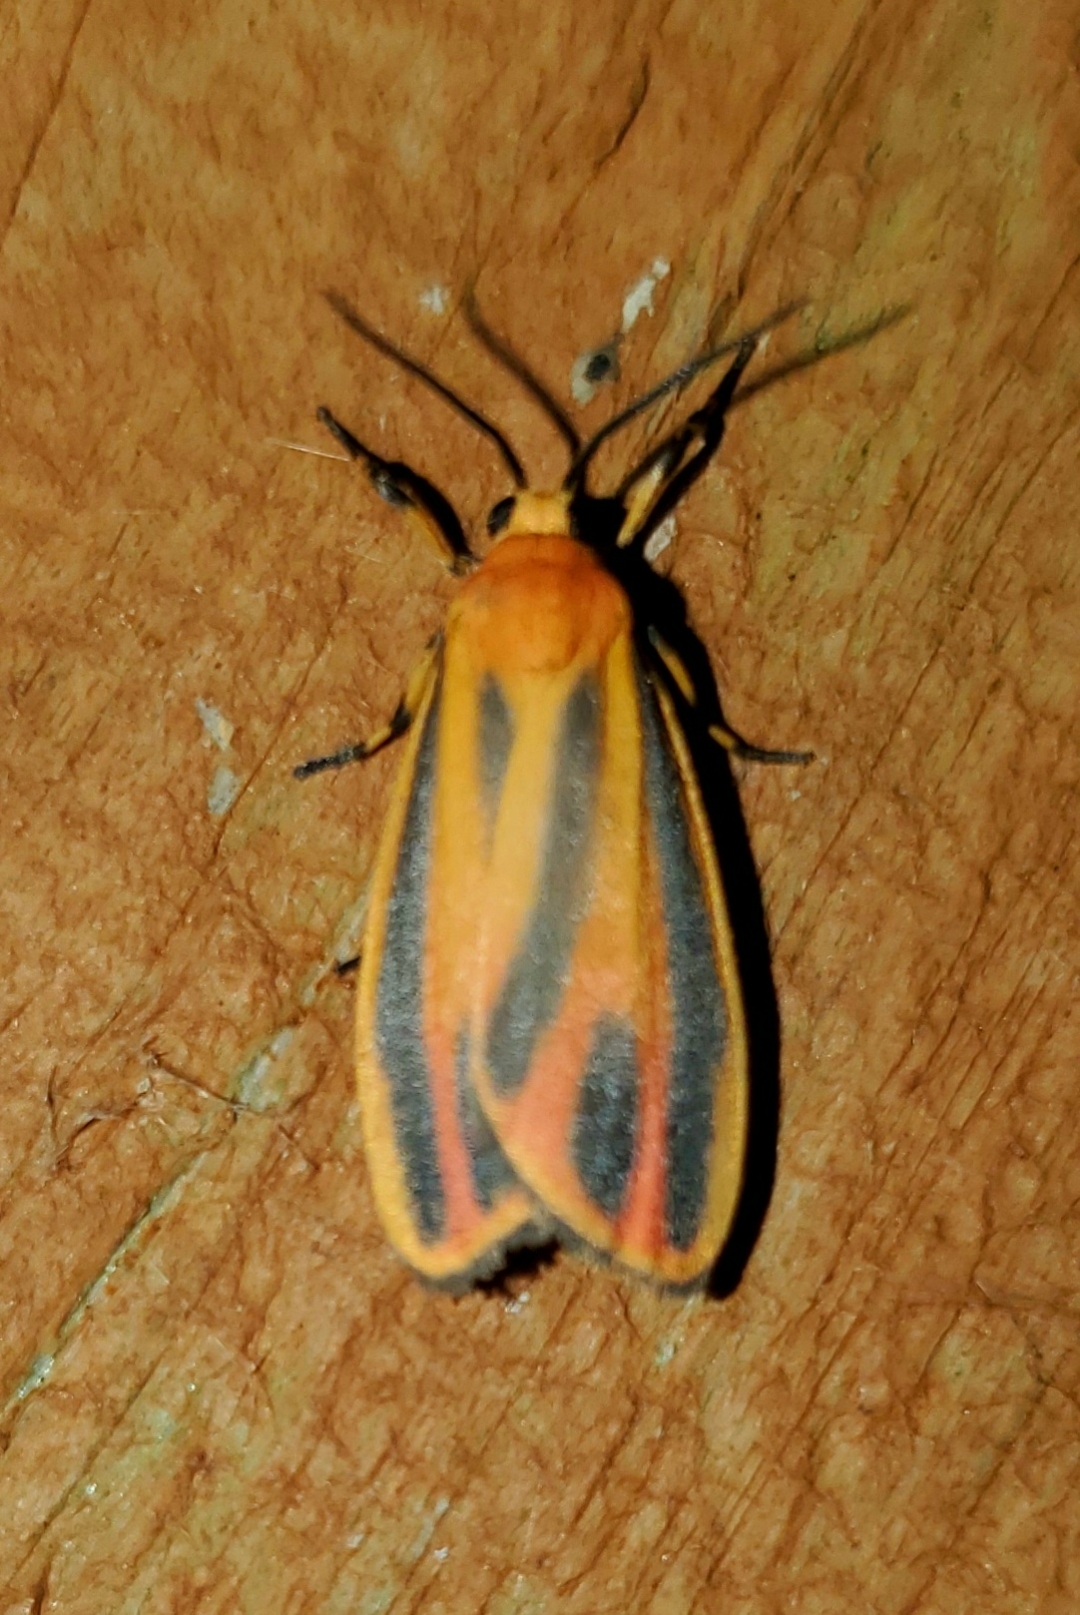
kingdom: Animalia
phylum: Arthropoda
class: Insecta
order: Lepidoptera
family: Erebidae
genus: Hypoprepia
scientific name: Hypoprepia fucosa
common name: Painted lichen moth
